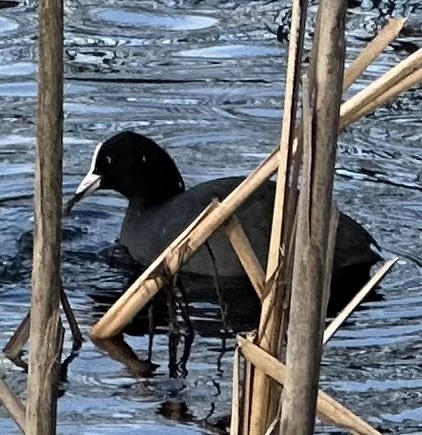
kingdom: Animalia
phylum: Chordata
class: Aves
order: Gruiformes
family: Rallidae
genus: Fulica
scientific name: Fulica atra
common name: Eurasian coot
